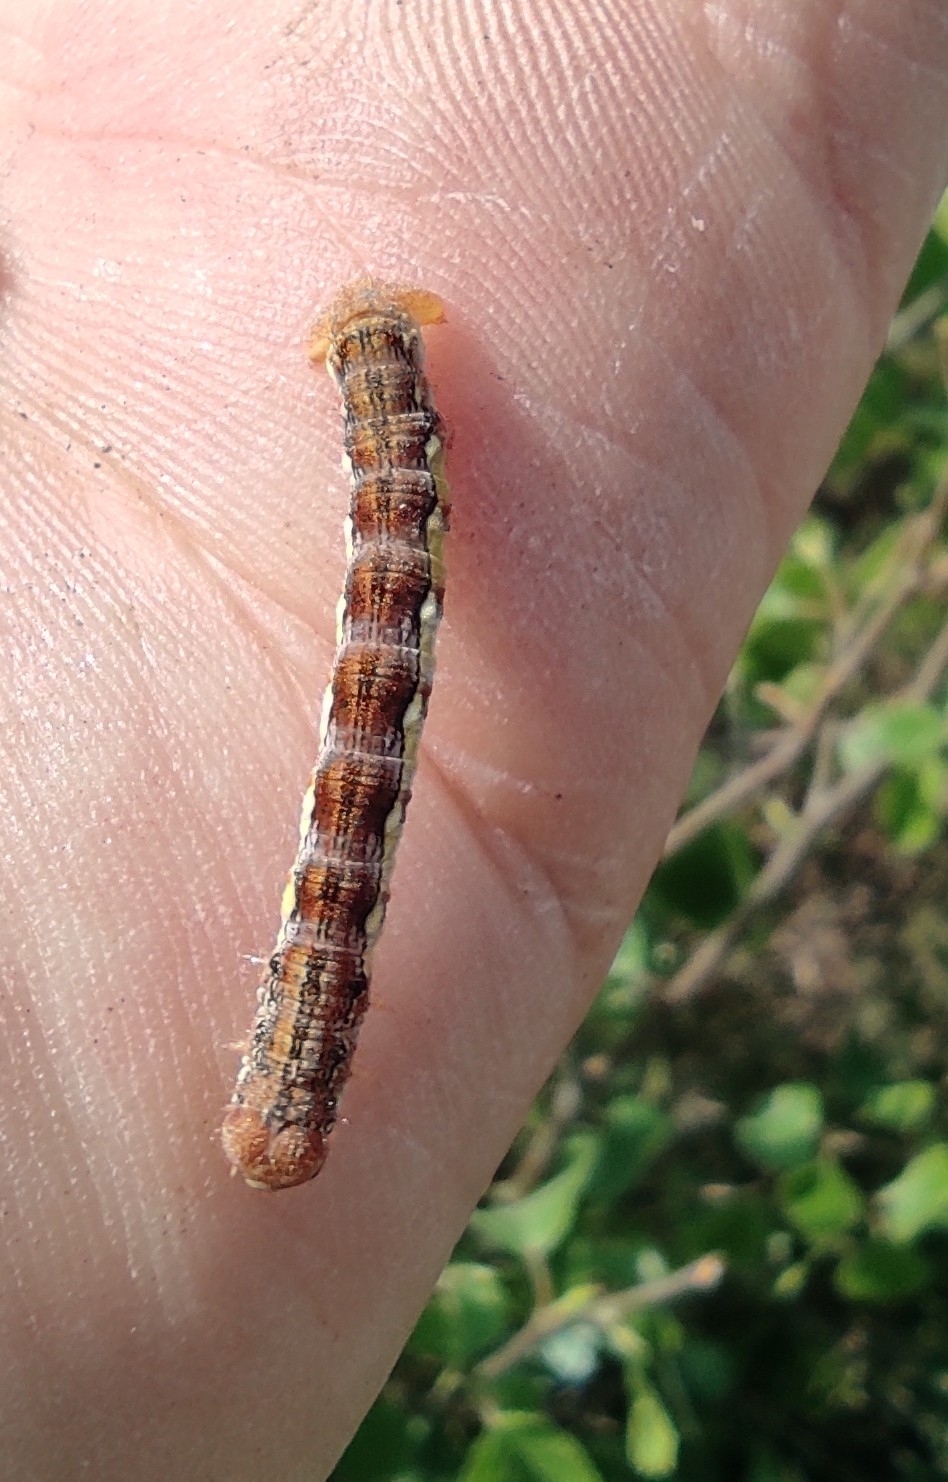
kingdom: Animalia
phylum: Arthropoda
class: Insecta
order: Lepidoptera
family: Geometridae
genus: Erannis
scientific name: Erannis defoliaria
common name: Mottled umber
